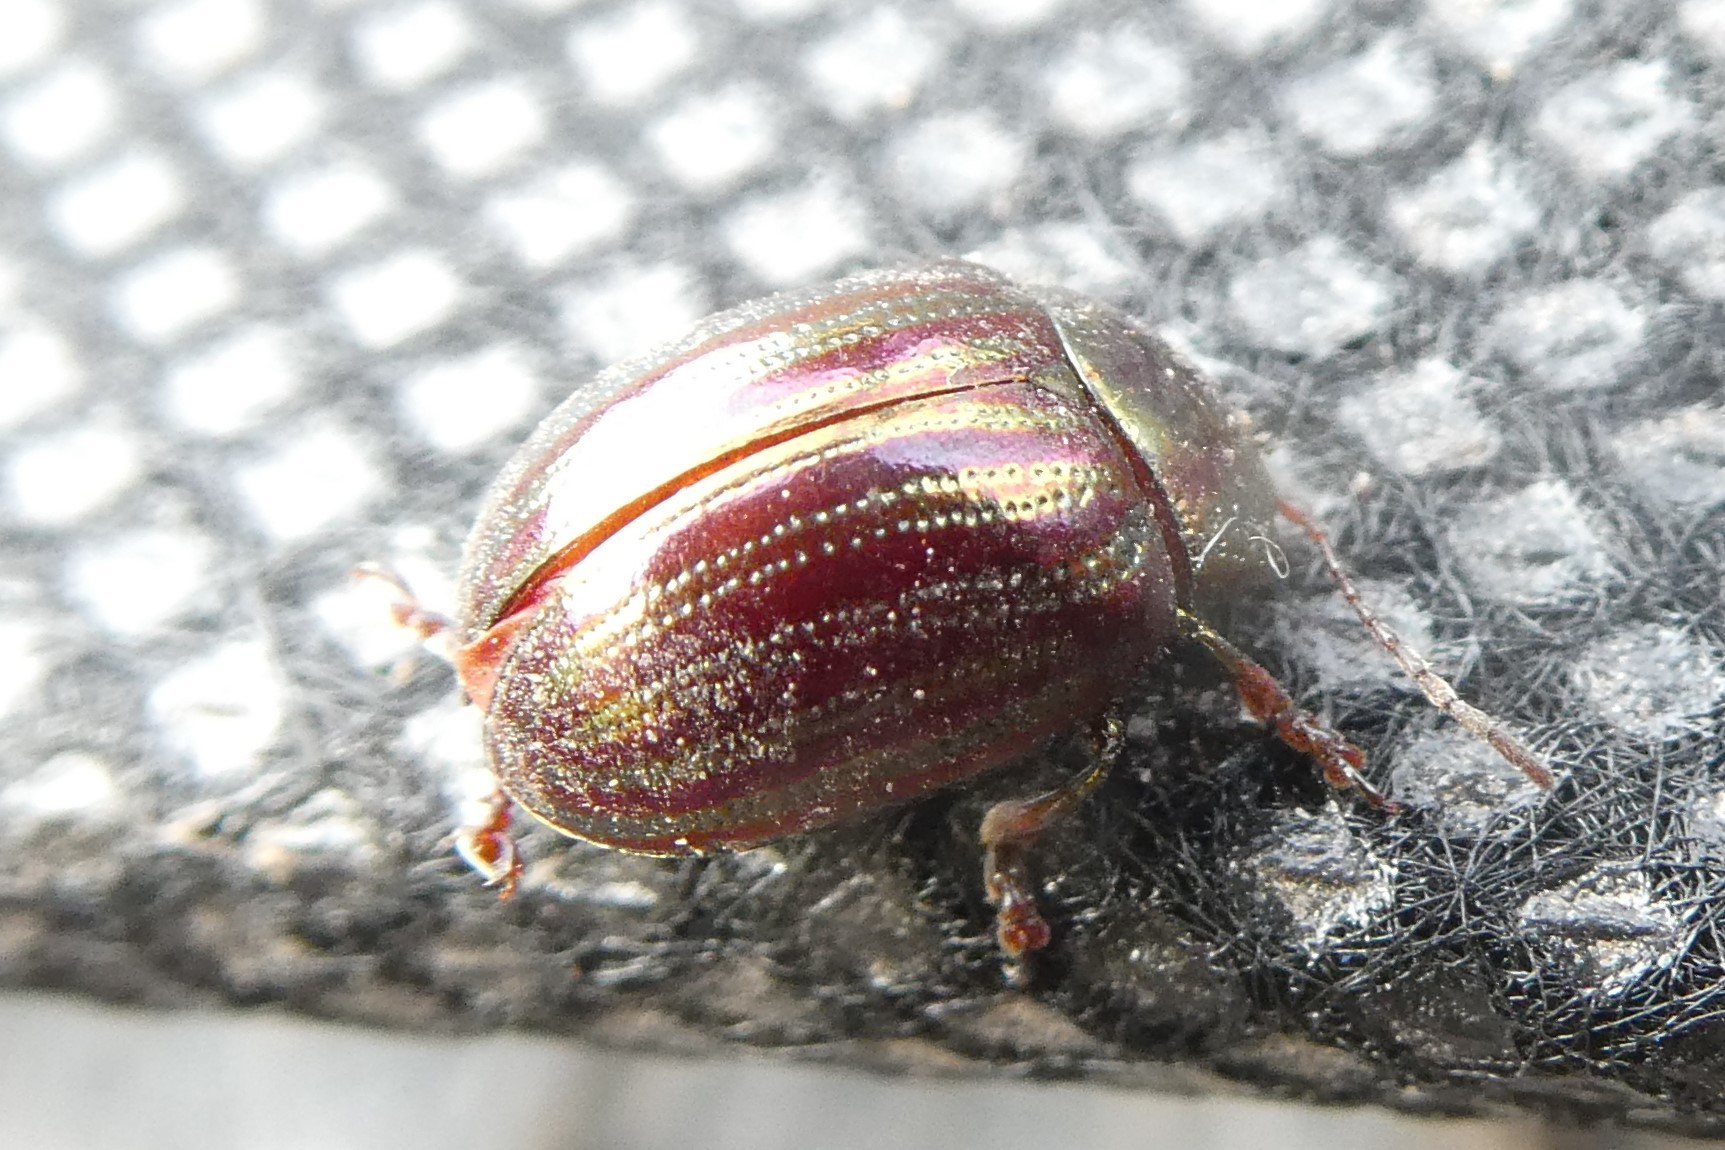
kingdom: Animalia
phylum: Arthropoda
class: Insecta
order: Coleoptera
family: Chrysomelidae
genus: Chrysolina
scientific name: Chrysolina americana
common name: Rosemary beetle
